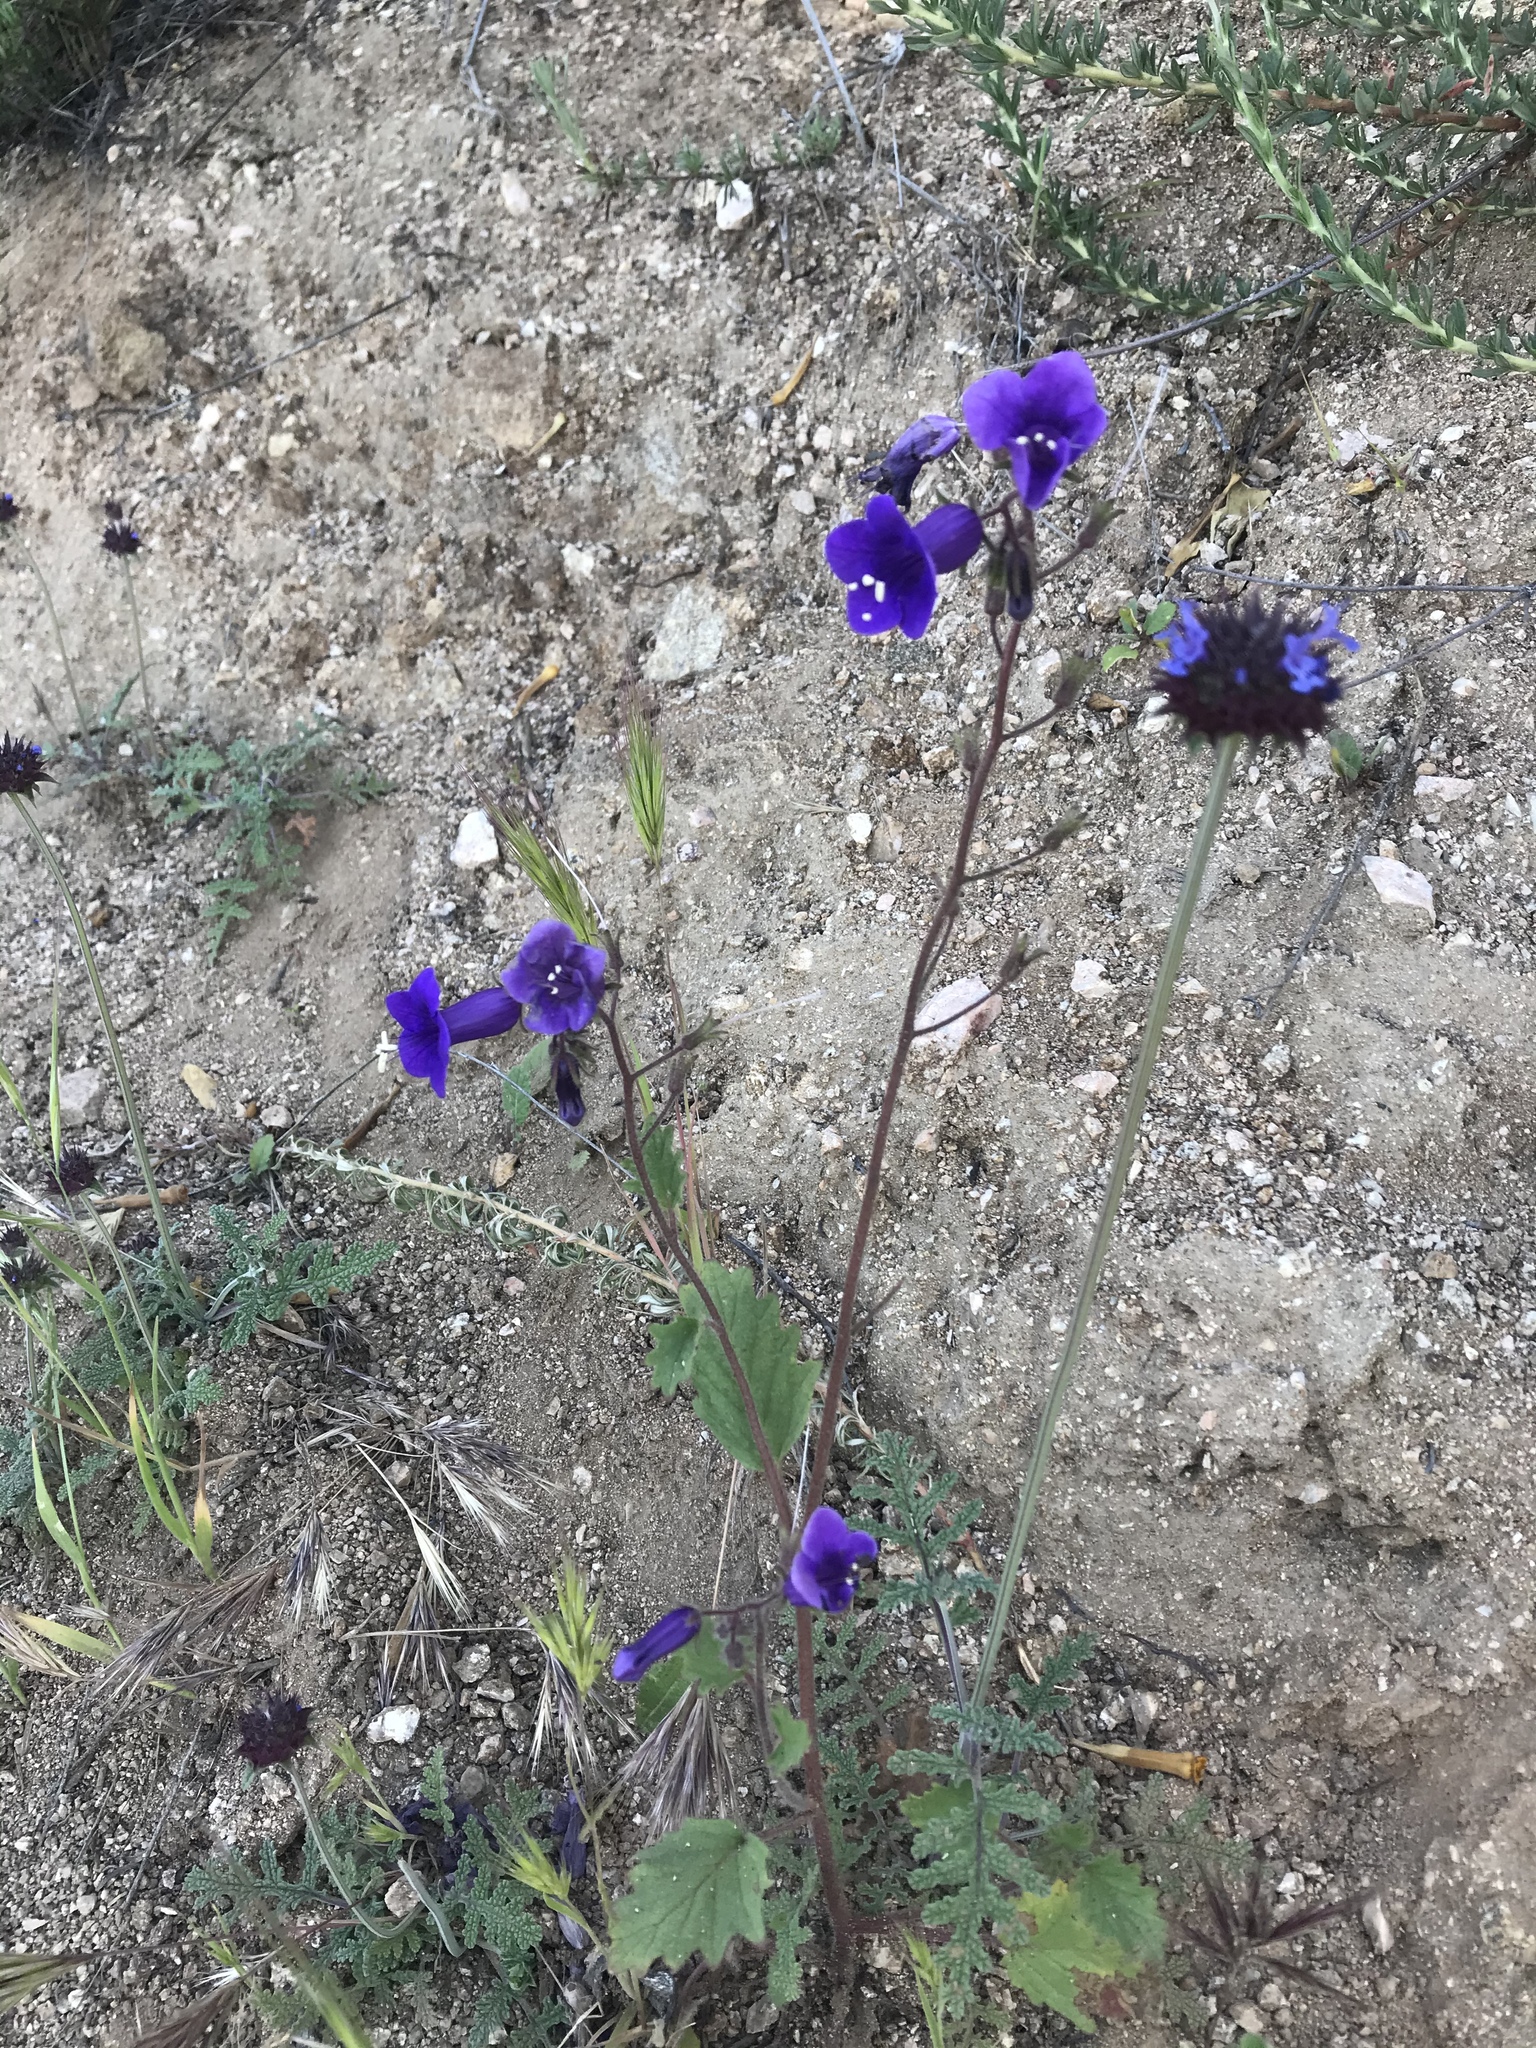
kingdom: Plantae
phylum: Tracheophyta
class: Magnoliopsida
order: Boraginales
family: Hydrophyllaceae
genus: Phacelia
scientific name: Phacelia minor
